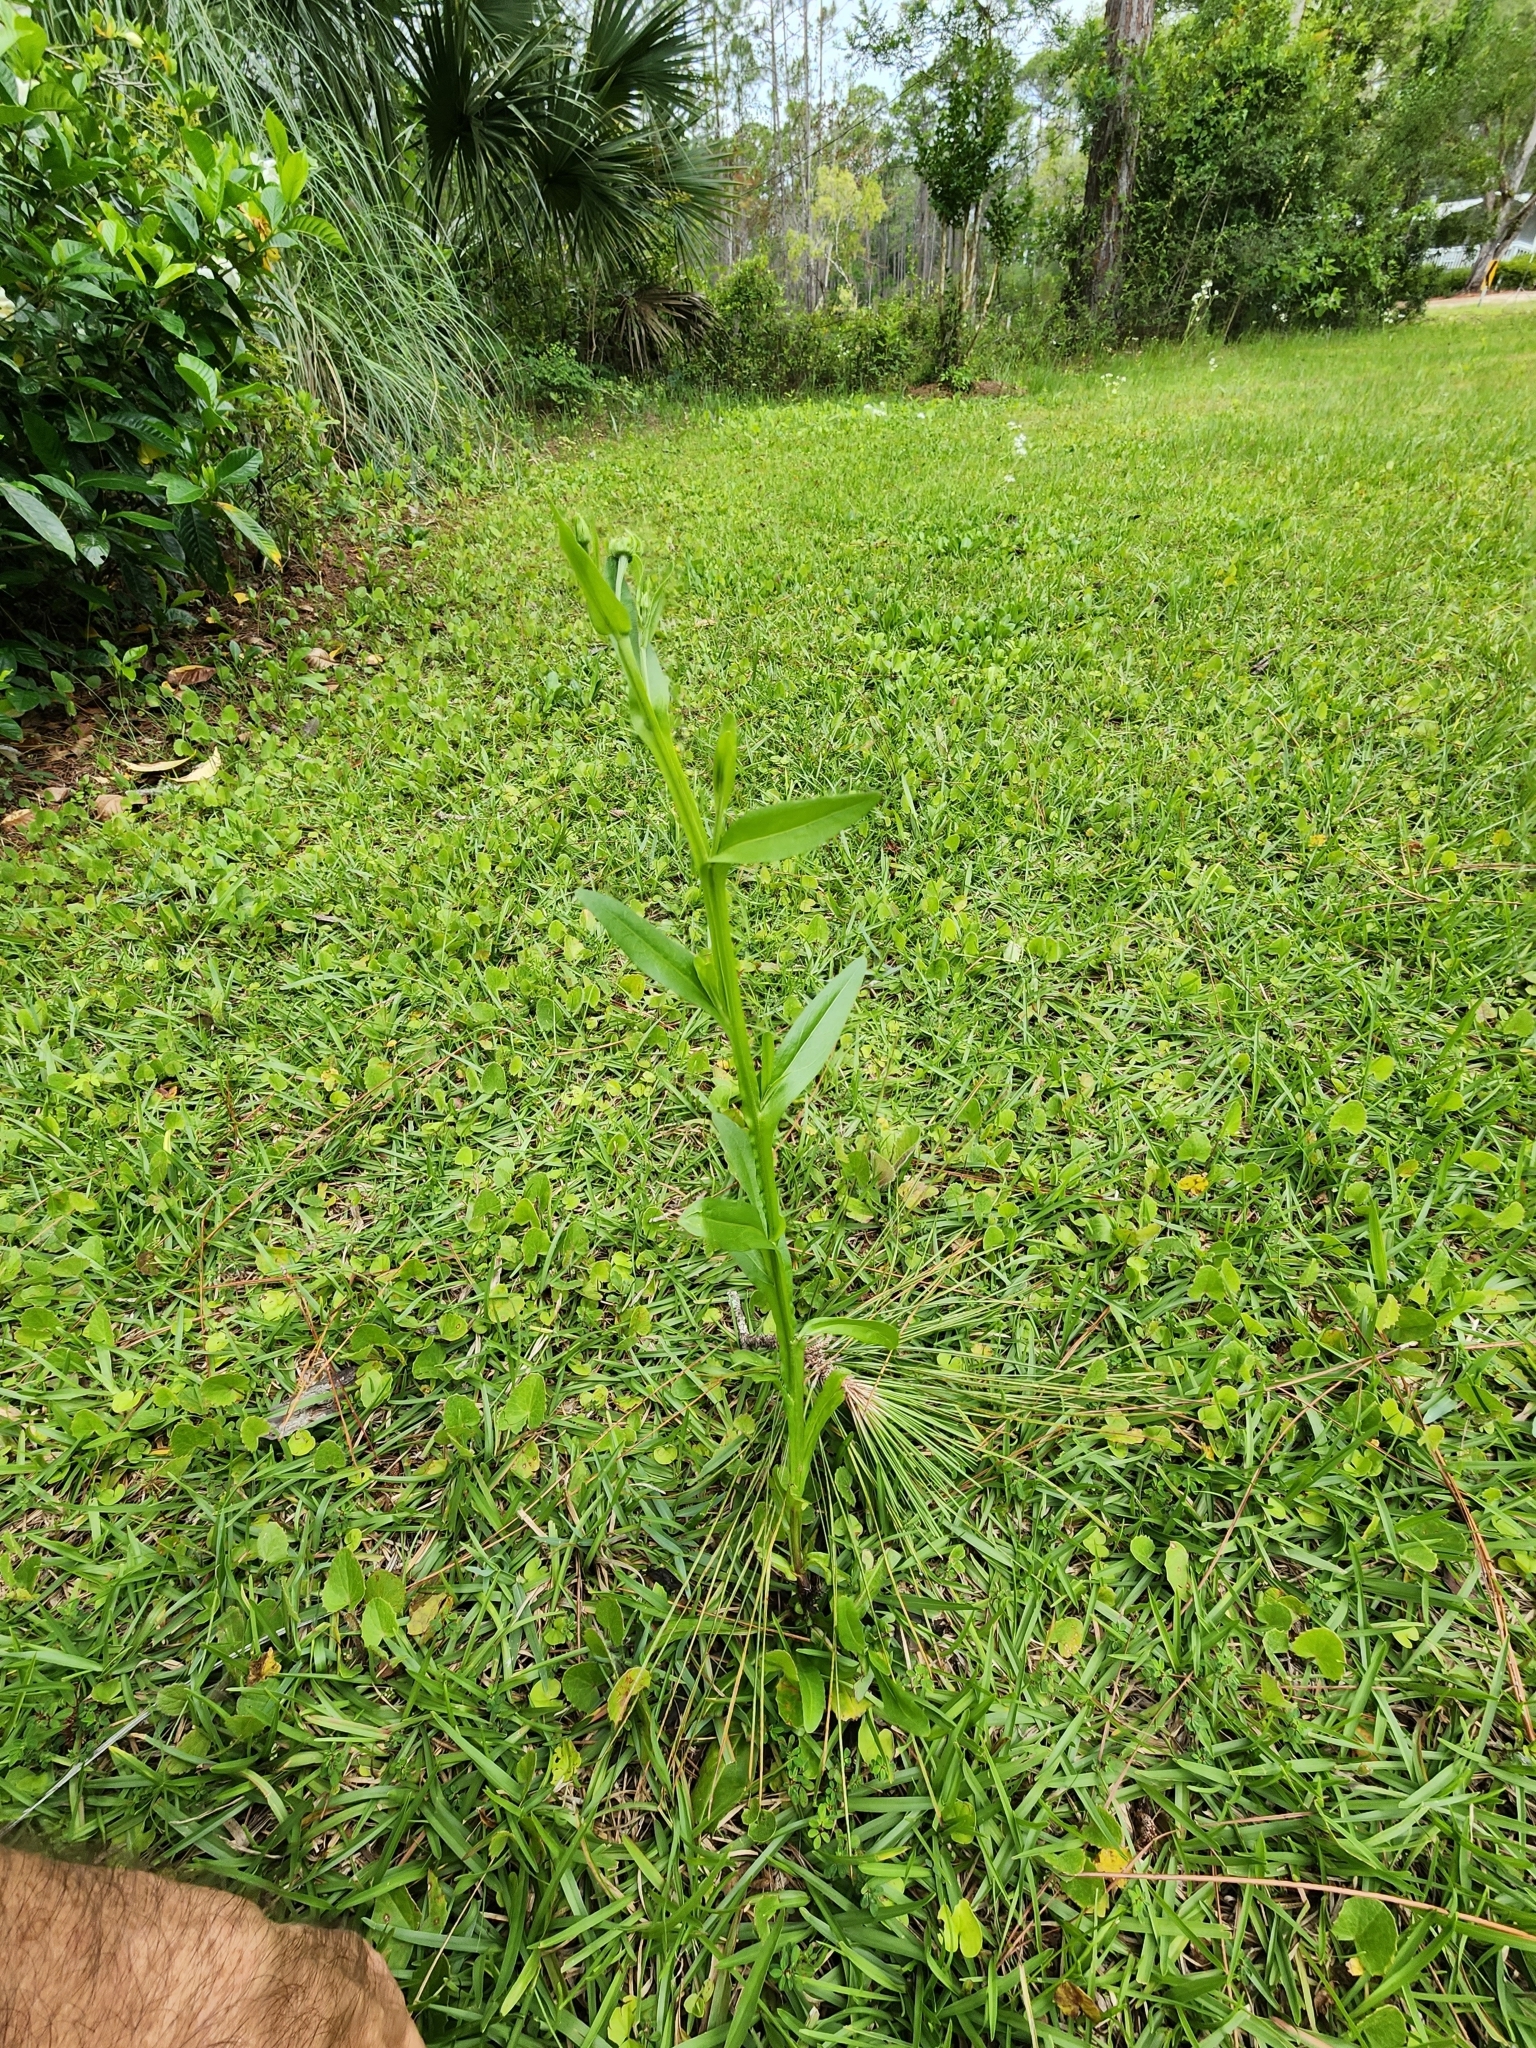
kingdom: Plantae
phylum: Tracheophyta
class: Magnoliopsida
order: Asterales
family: Asteraceae
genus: Helenium
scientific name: Helenium flexuosum
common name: Naked-flowered sneezeweed
